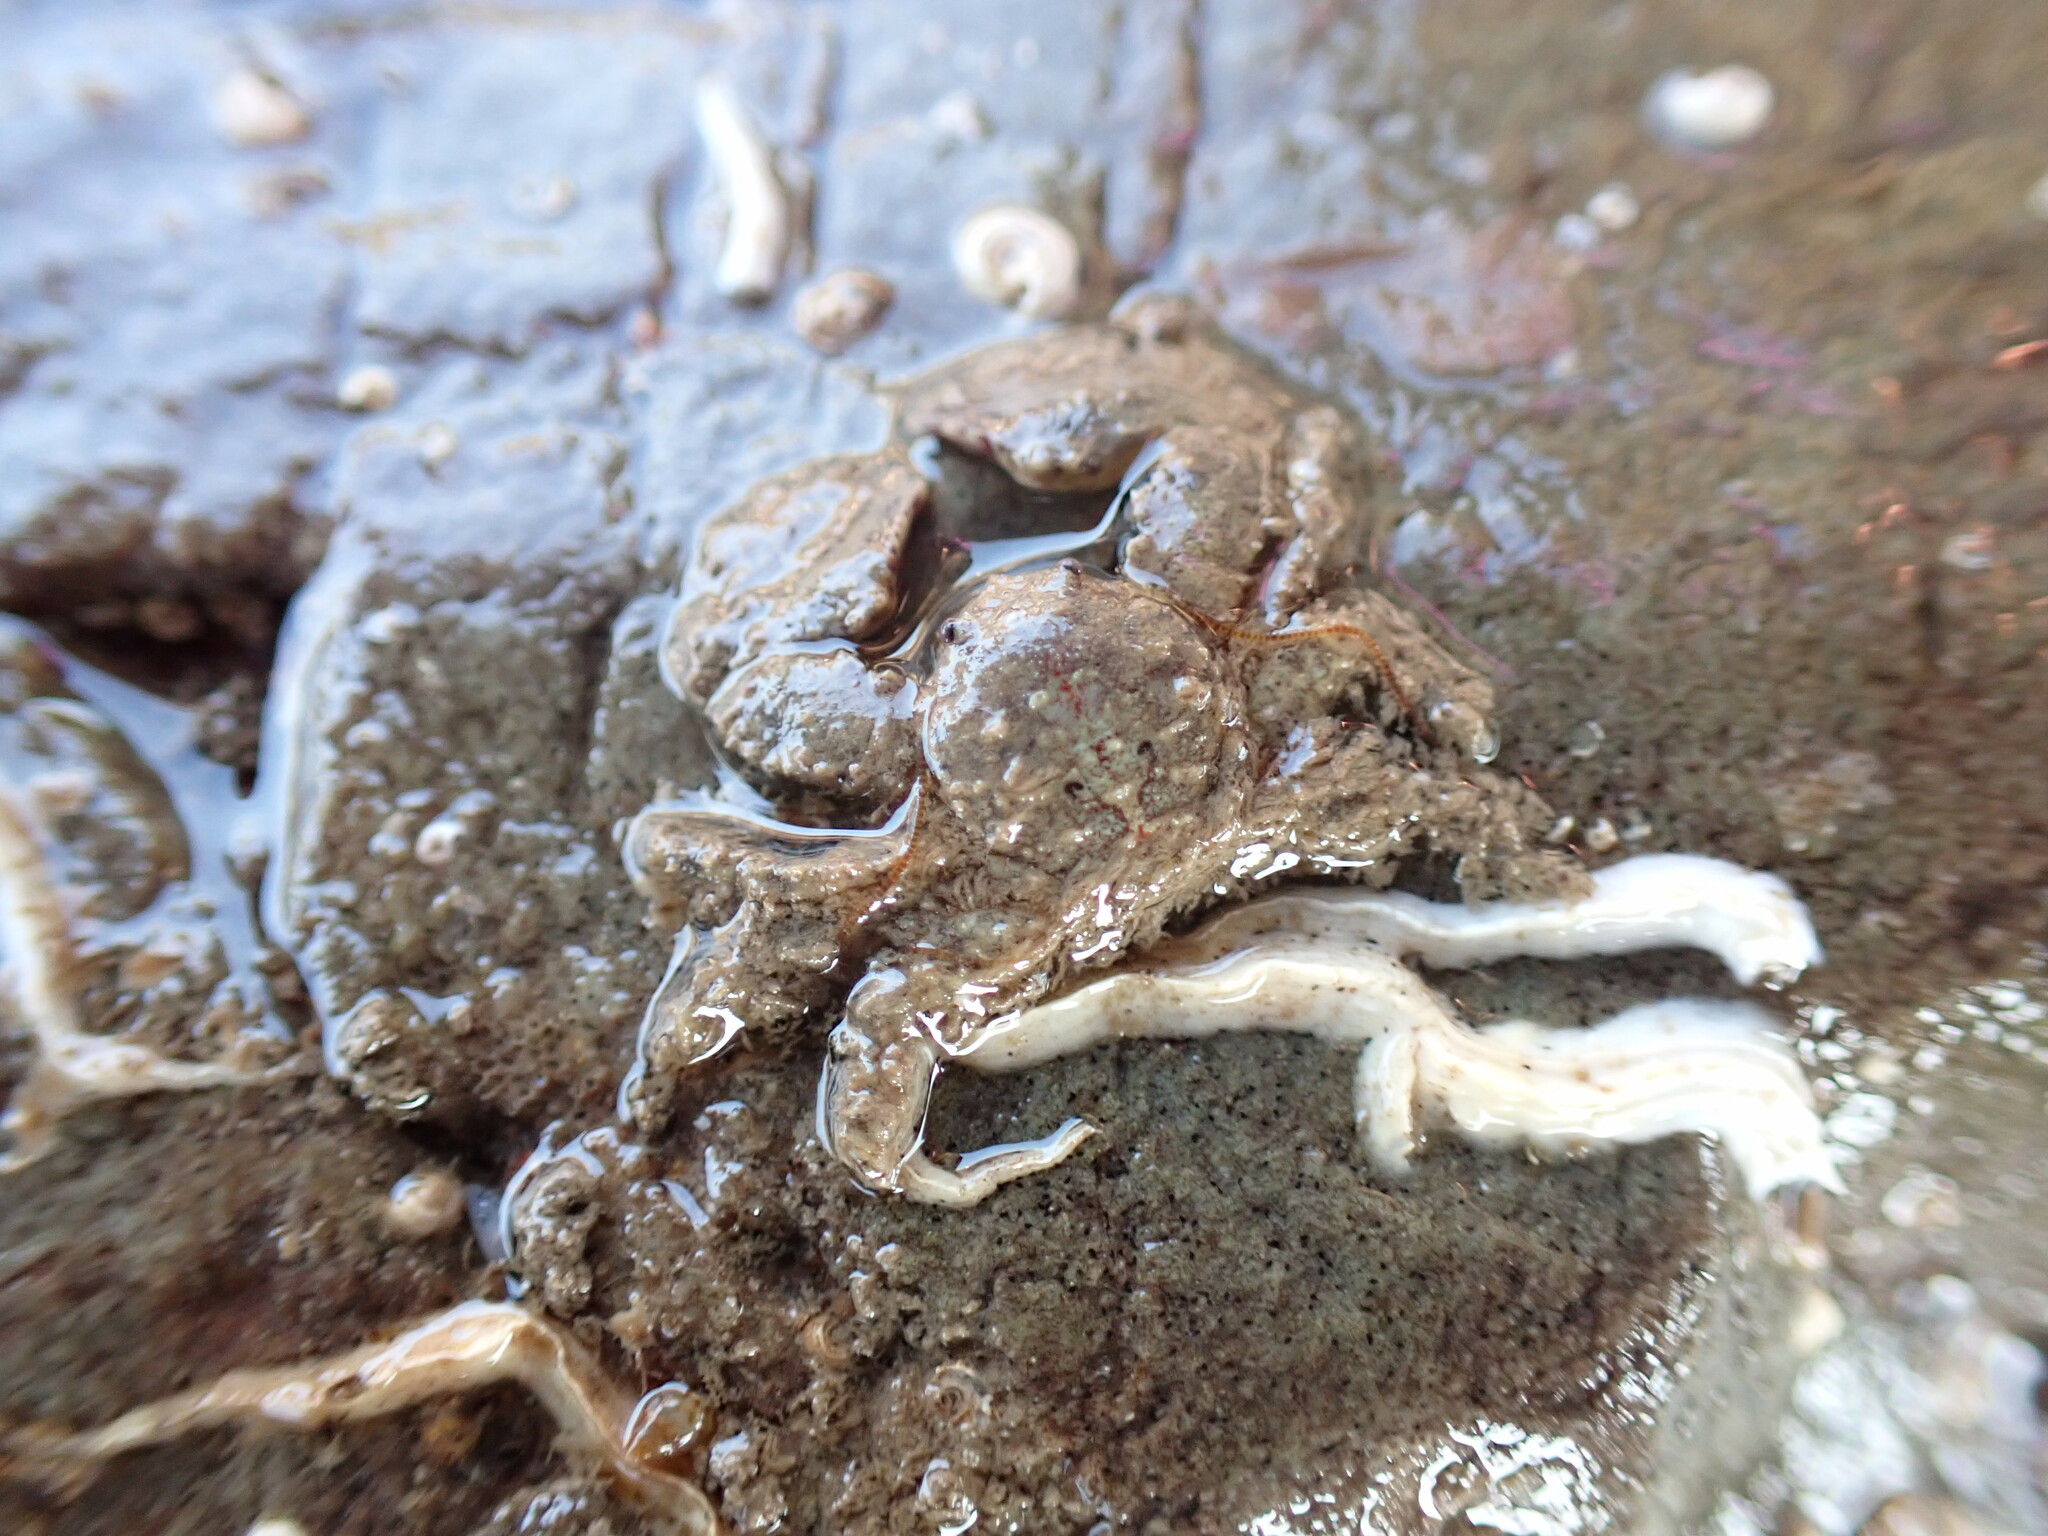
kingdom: Animalia
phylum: Arthropoda
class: Malacostraca
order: Decapoda
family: Porcellanidae
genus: Porcellana
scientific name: Porcellana platycheles
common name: Porcelain crab
